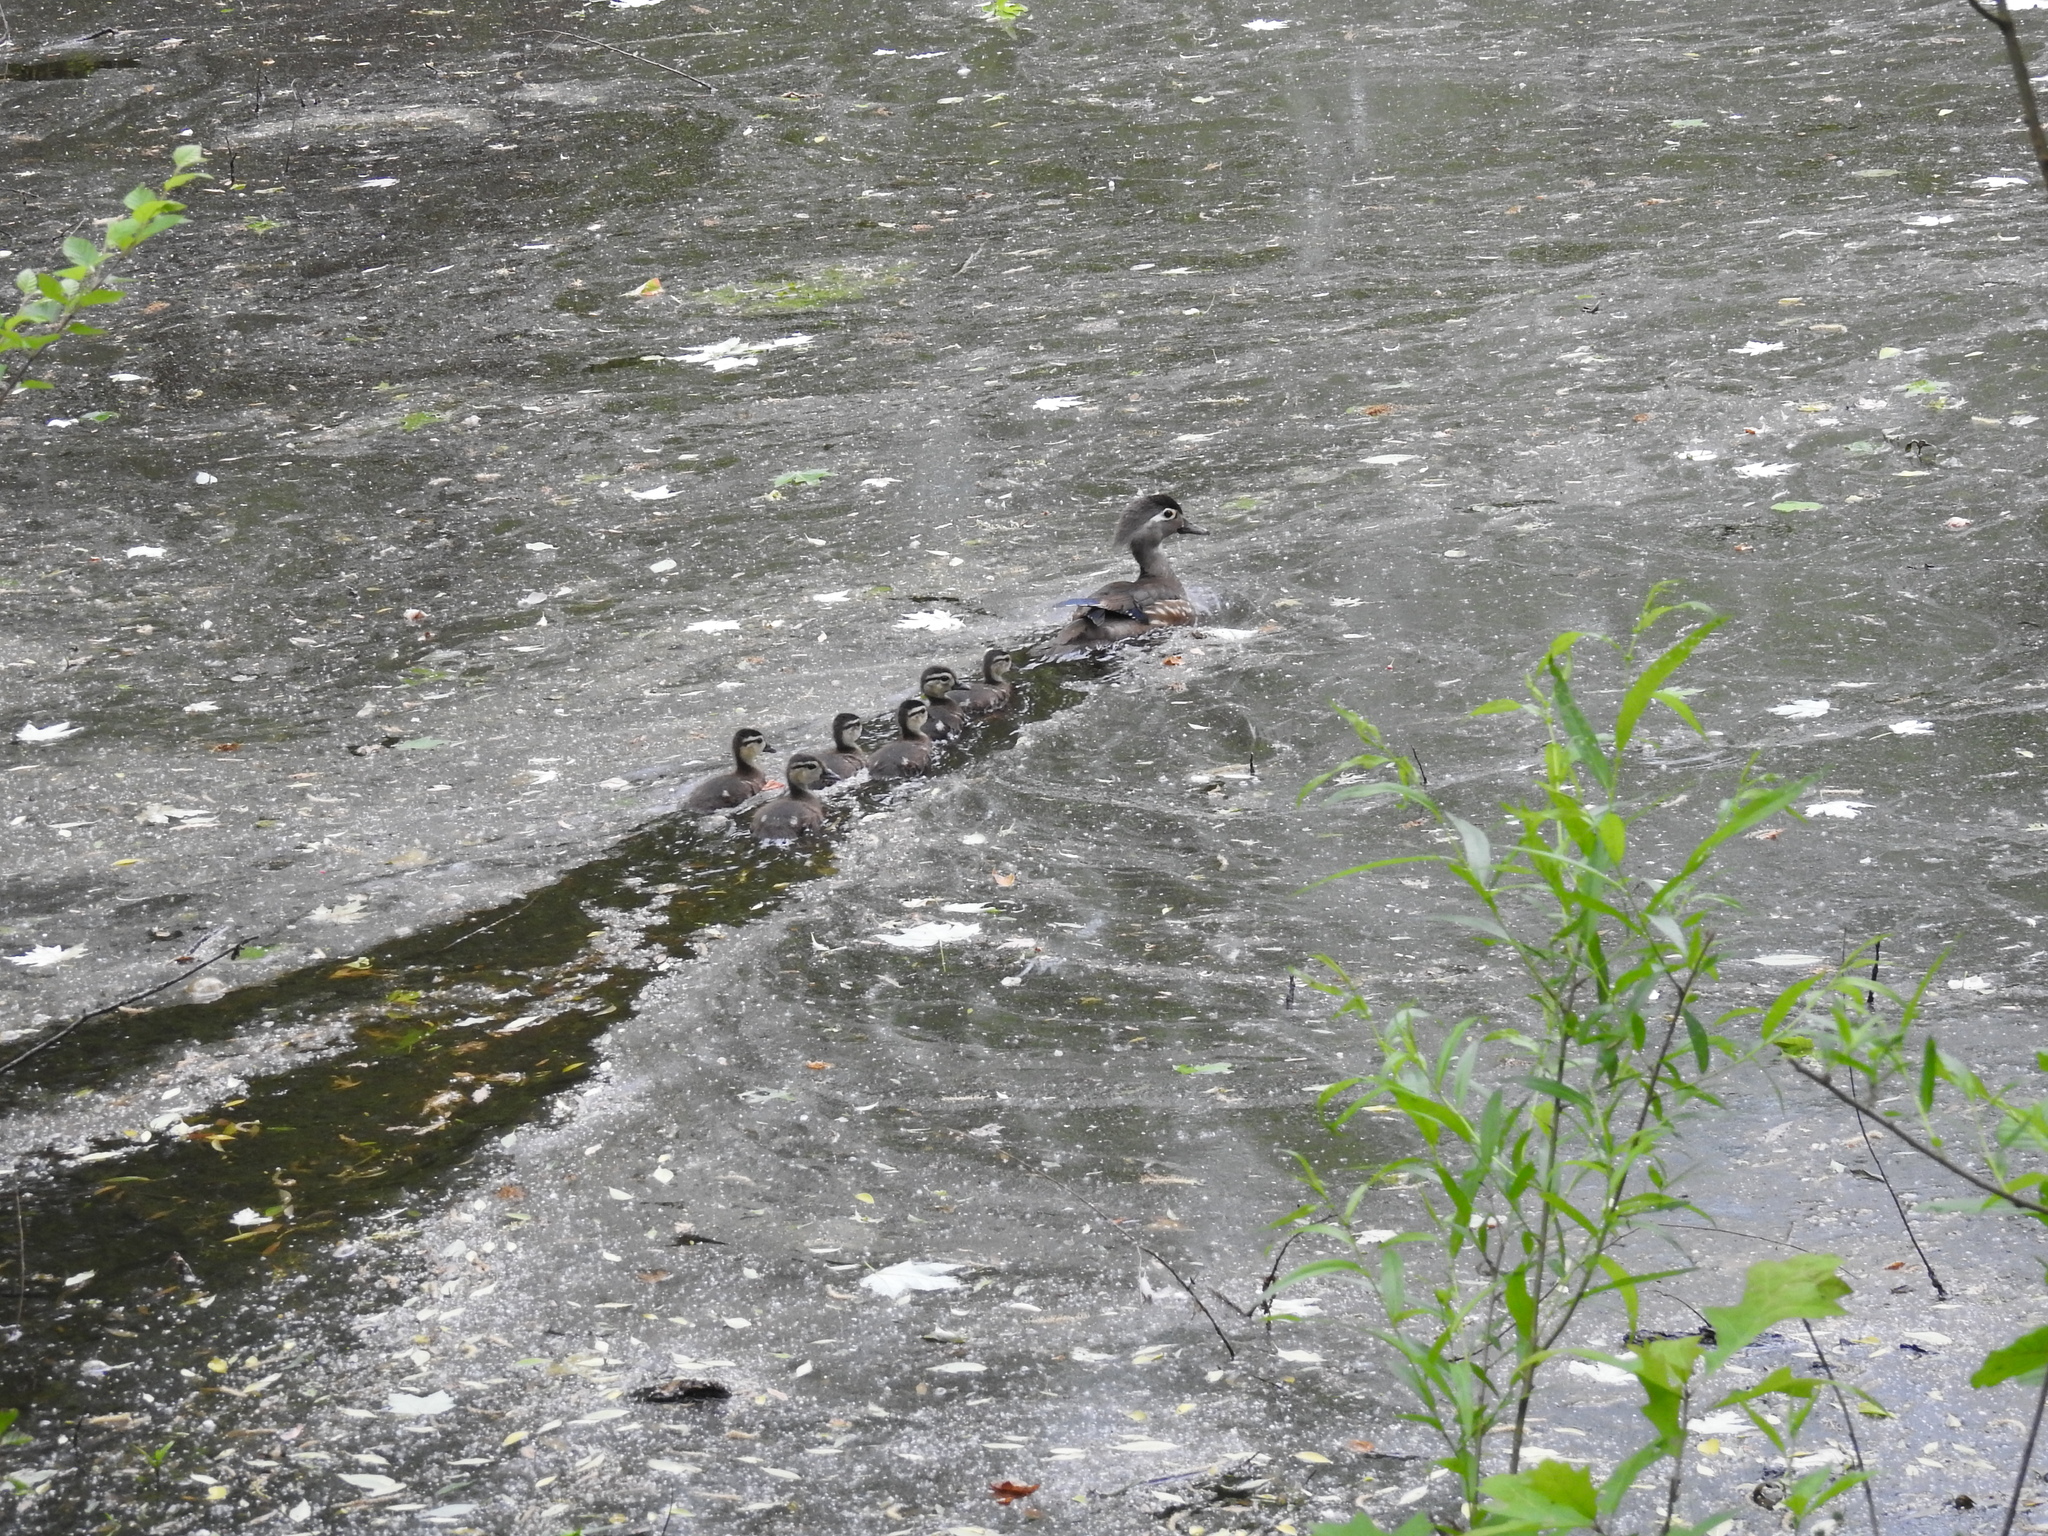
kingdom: Animalia
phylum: Chordata
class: Aves
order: Anseriformes
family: Anatidae
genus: Aix
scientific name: Aix sponsa
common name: Wood duck
